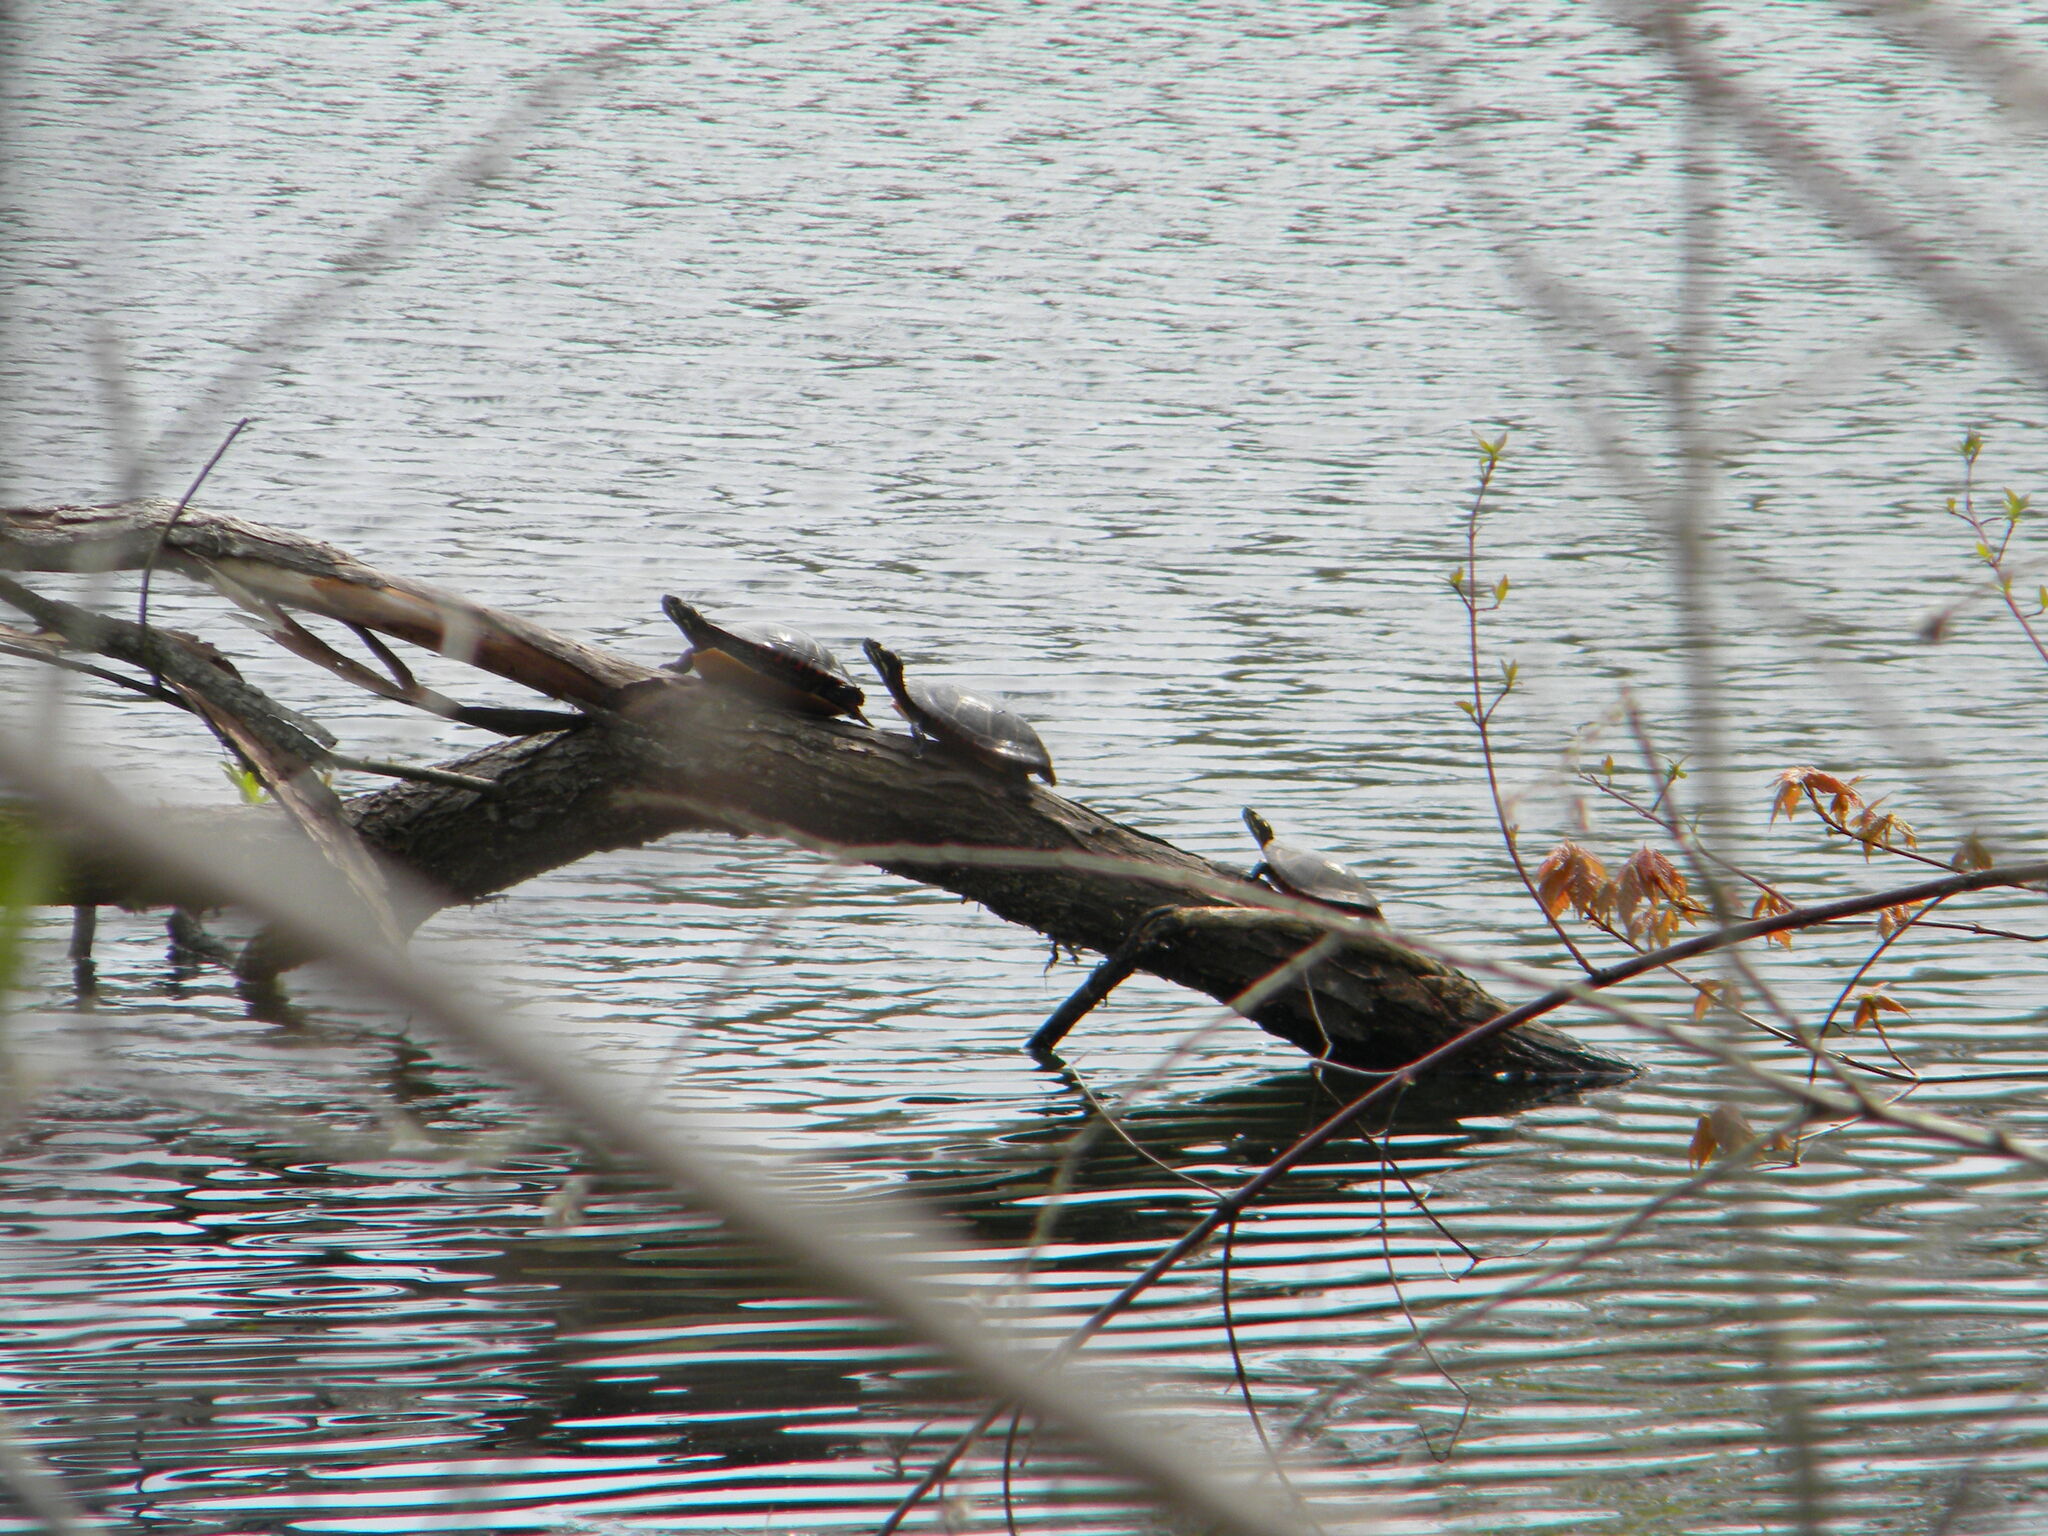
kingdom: Animalia
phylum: Chordata
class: Testudines
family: Emydidae
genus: Chrysemys
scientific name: Chrysemys picta
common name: Painted turtle
